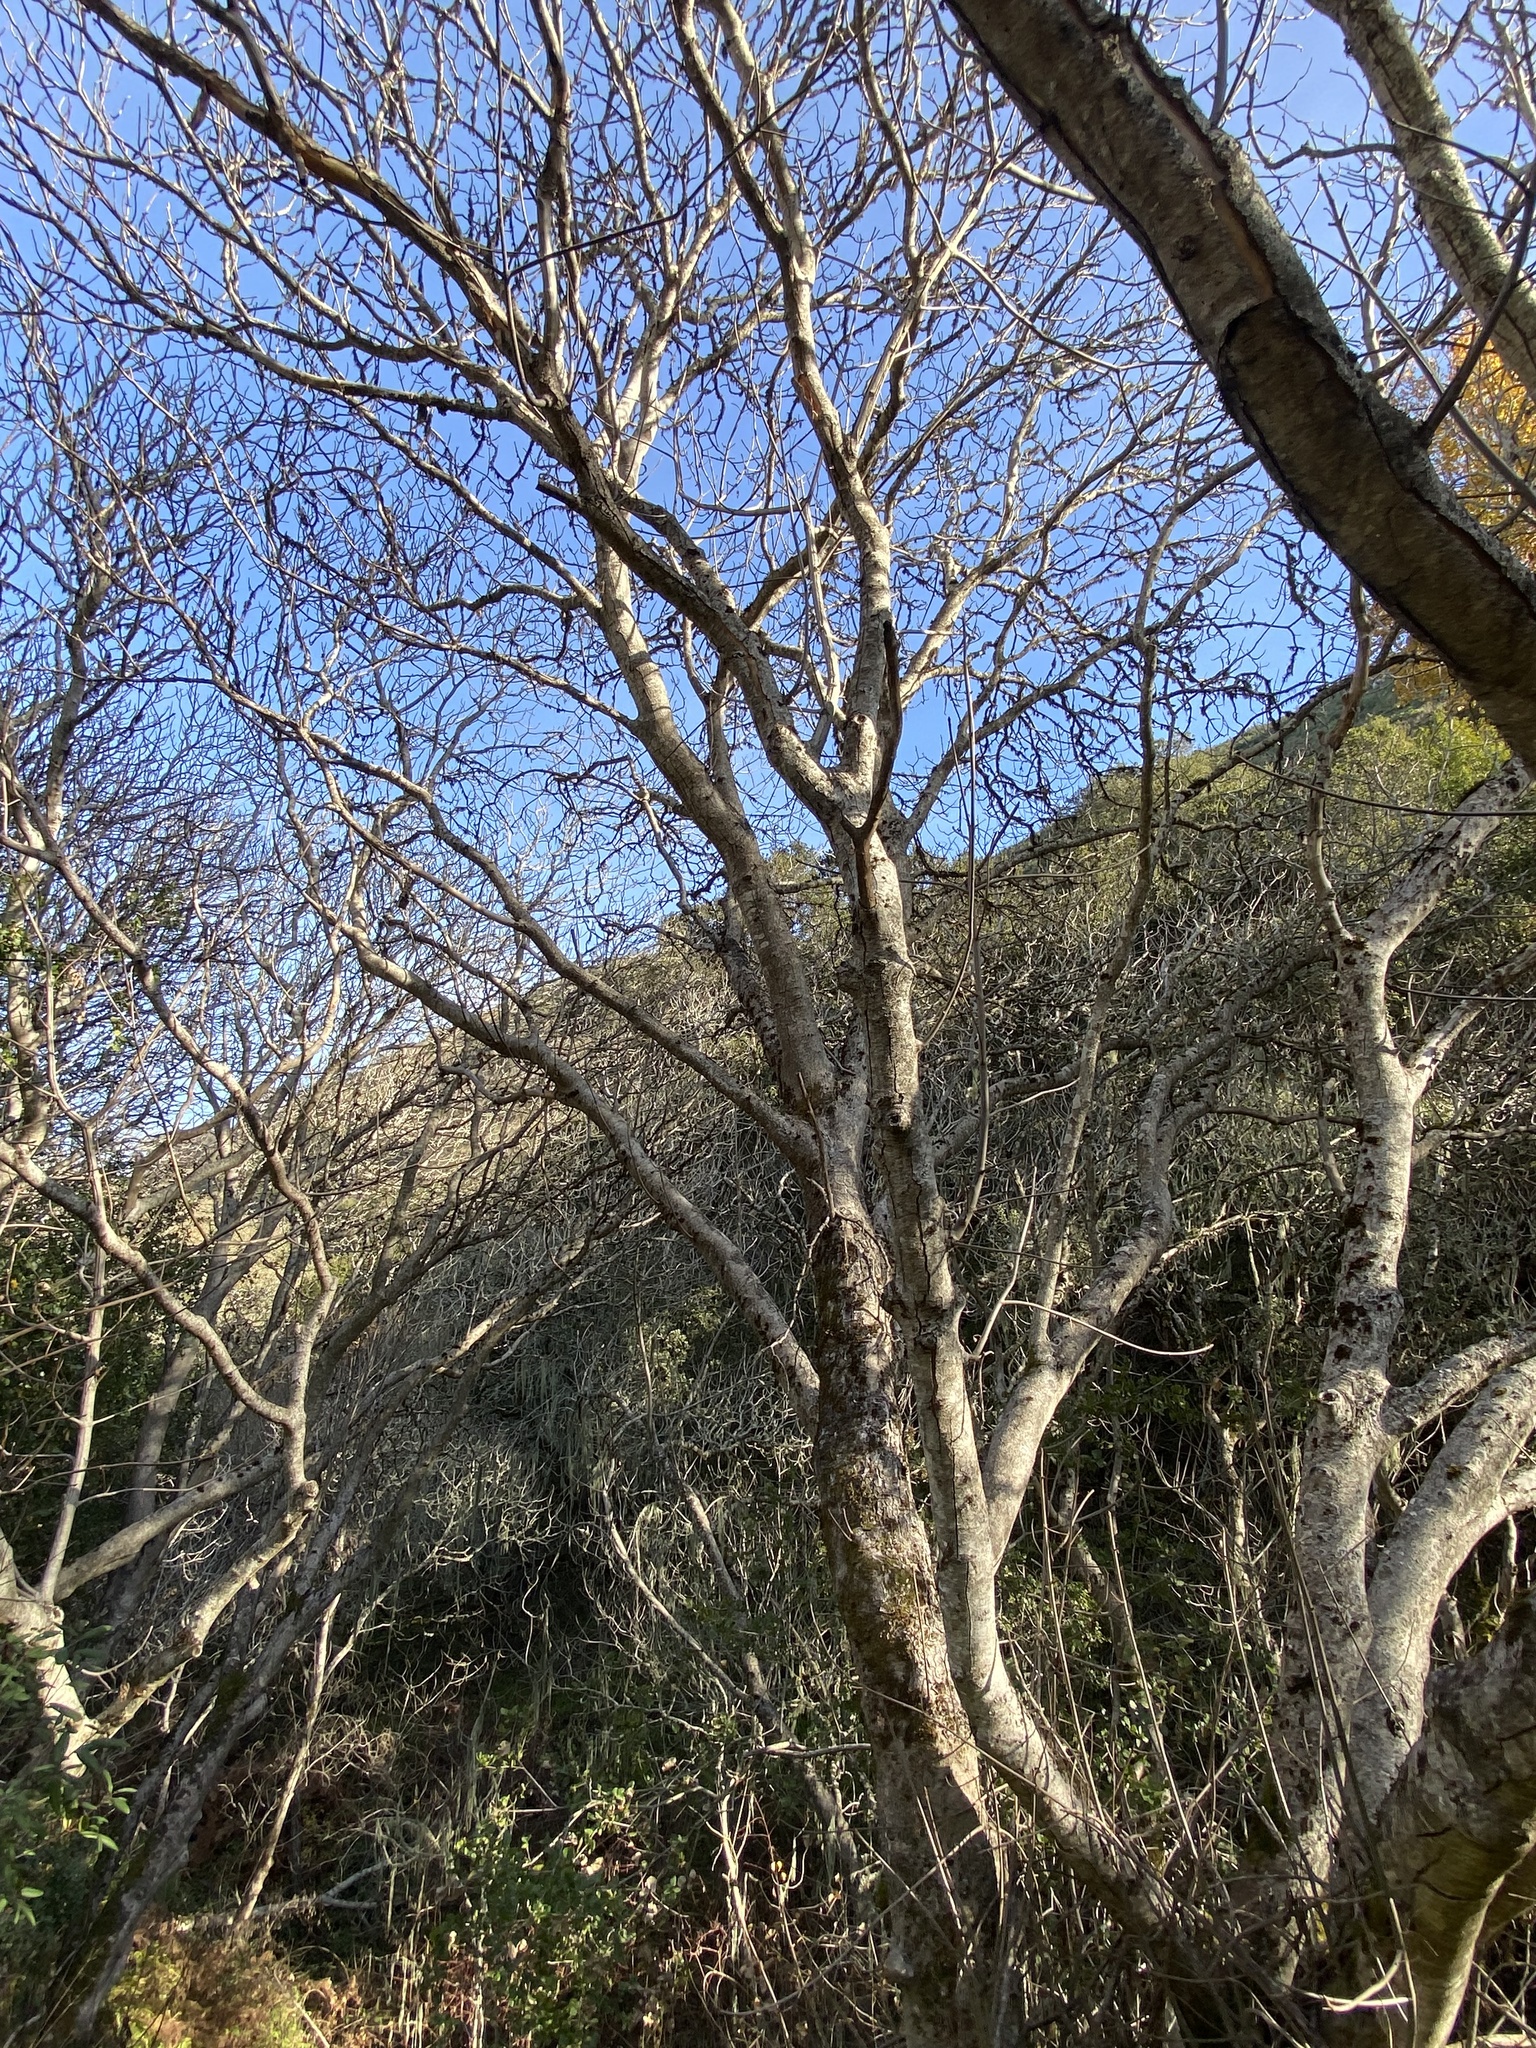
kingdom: Plantae
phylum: Tracheophyta
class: Magnoliopsida
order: Sapindales
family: Sapindaceae
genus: Aesculus
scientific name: Aesculus californica
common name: California buckeye
